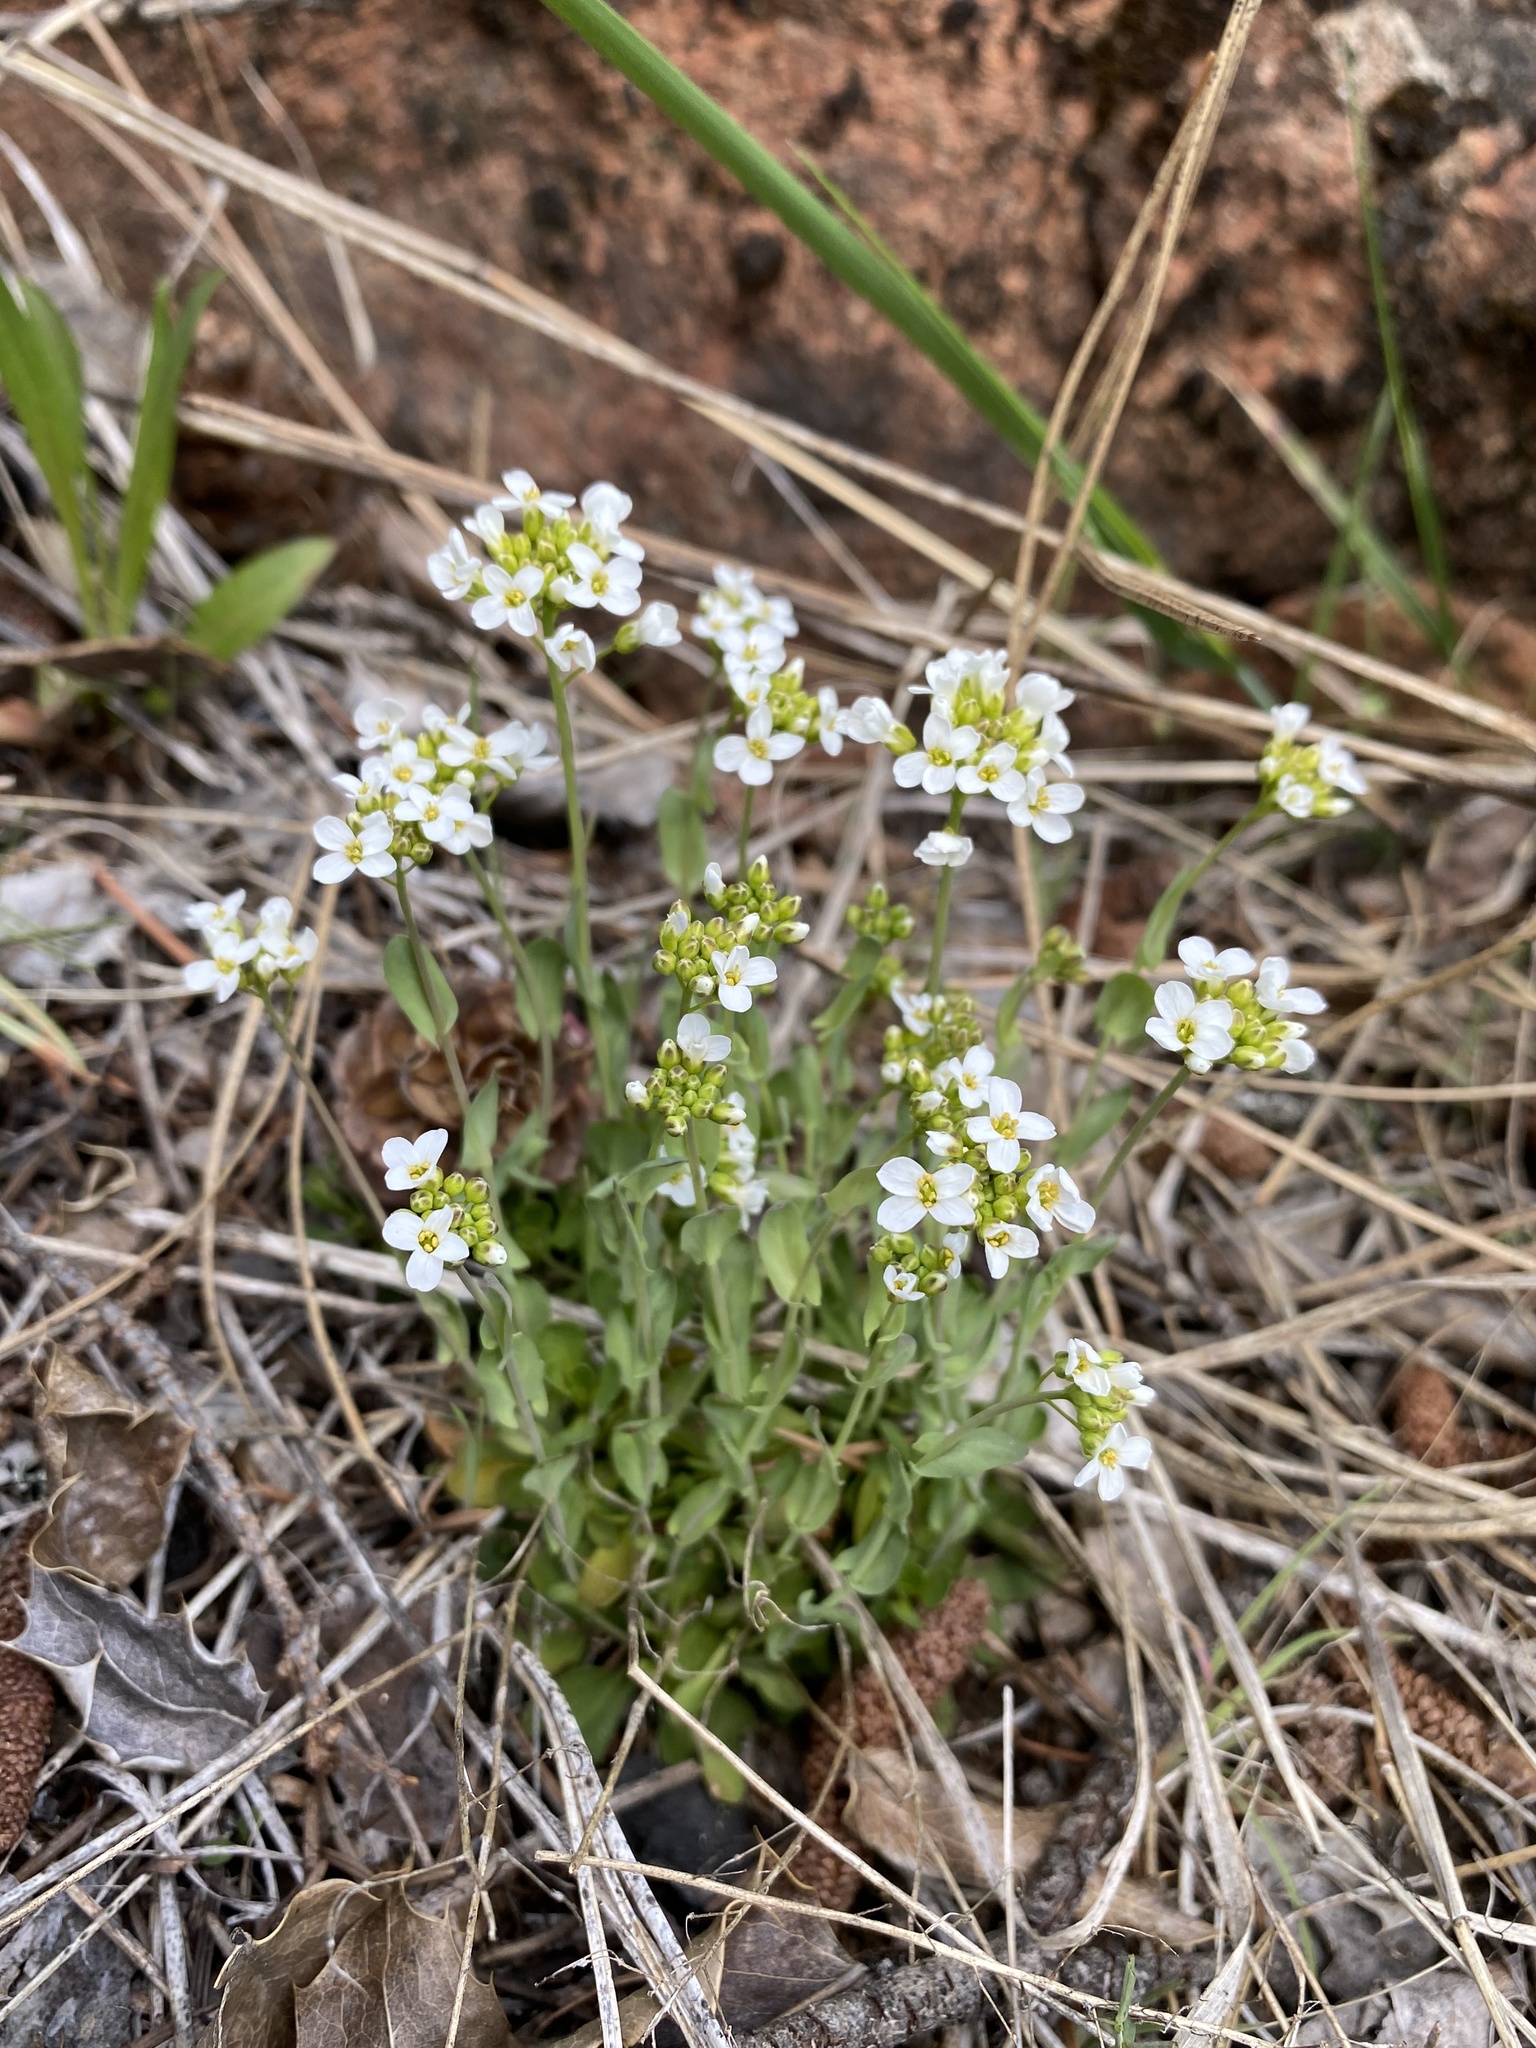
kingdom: Plantae
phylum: Tracheophyta
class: Magnoliopsida
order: Brassicales
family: Brassicaceae
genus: Noccaea
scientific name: Noccaea fendleri
